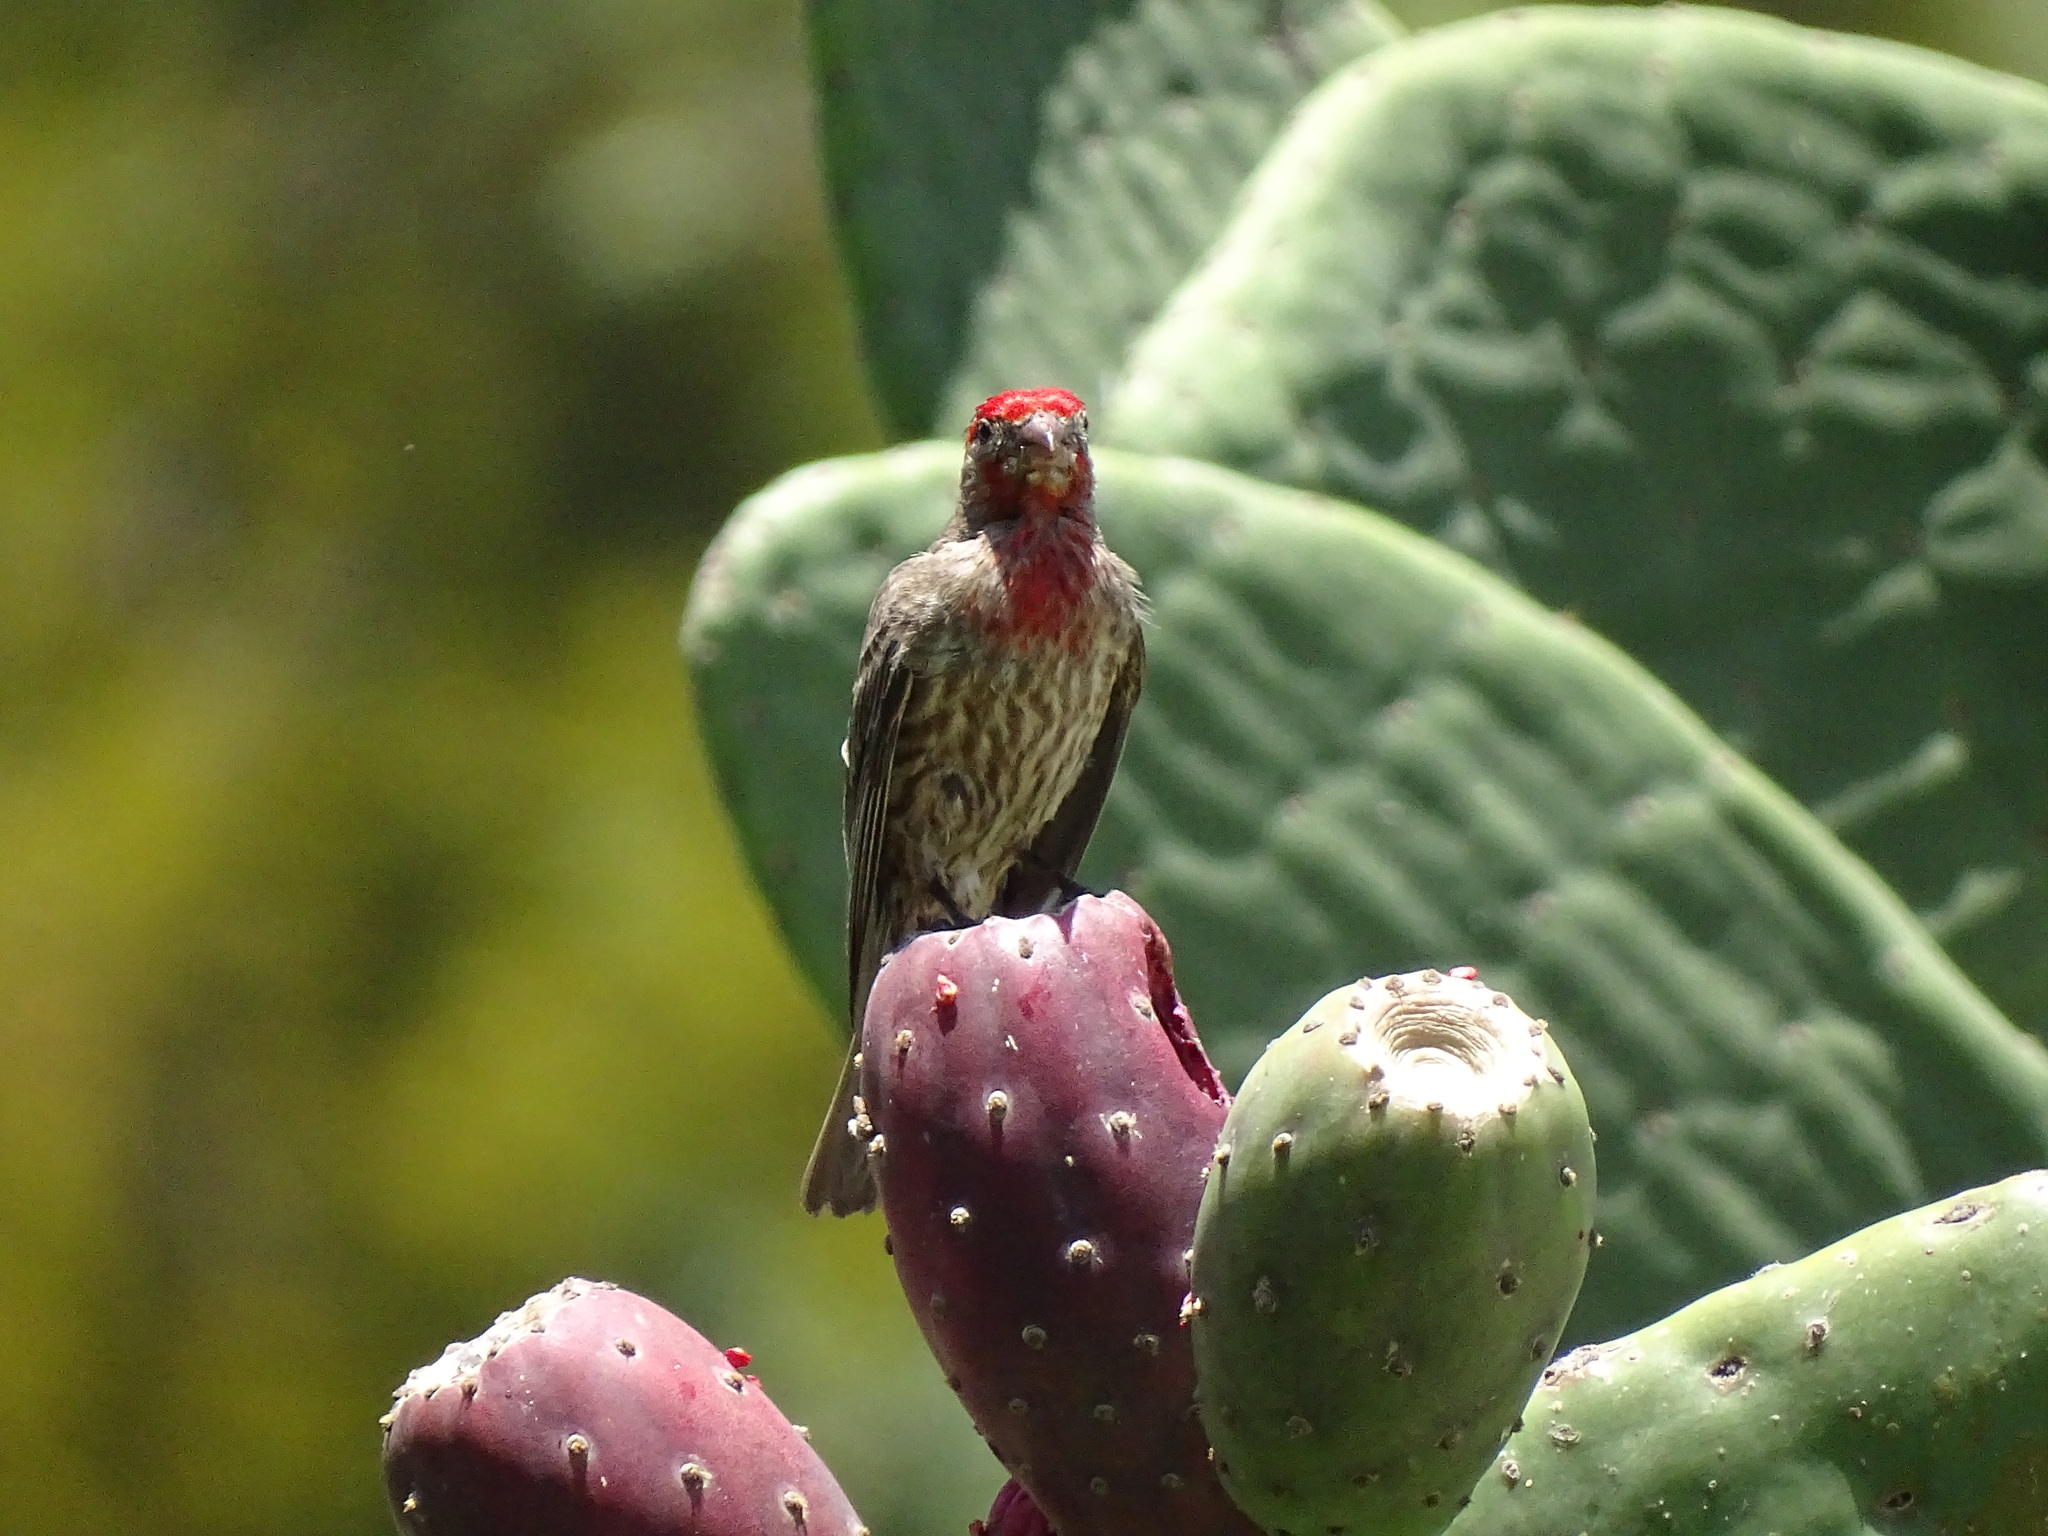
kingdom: Animalia
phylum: Chordata
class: Aves
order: Passeriformes
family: Fringillidae
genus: Haemorhous
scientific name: Haemorhous mexicanus
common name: House finch
